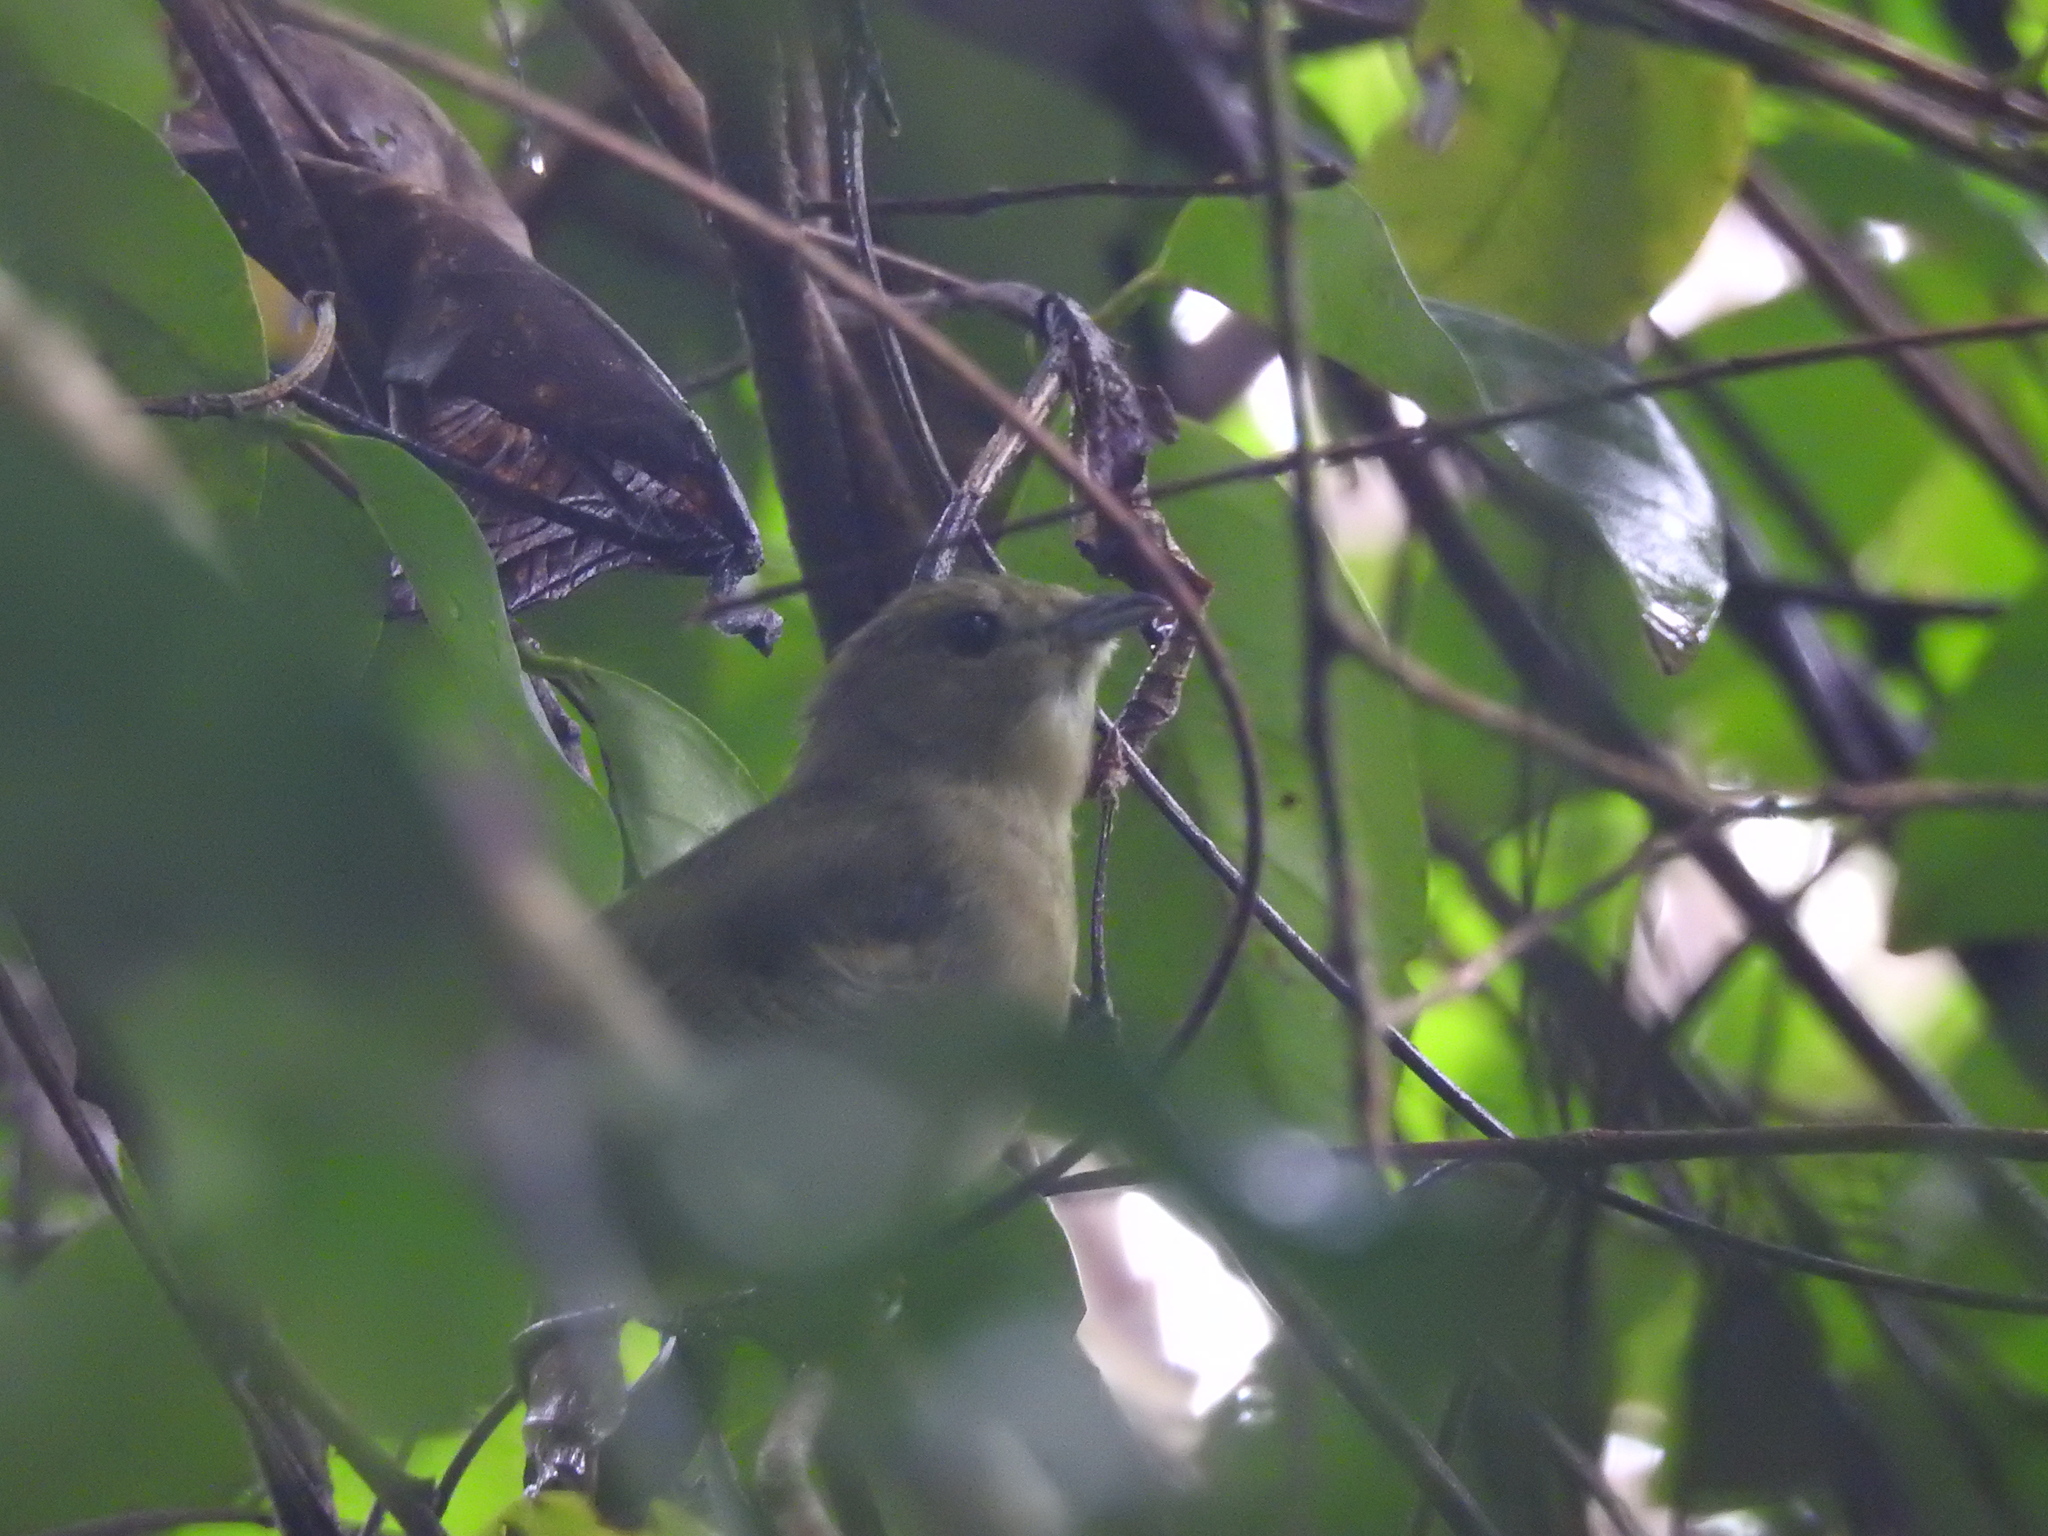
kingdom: Animalia
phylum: Chordata
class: Aves
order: Passeriformes
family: Pipridae
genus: Manacus
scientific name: Manacus manacus
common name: White-bearded manakin
